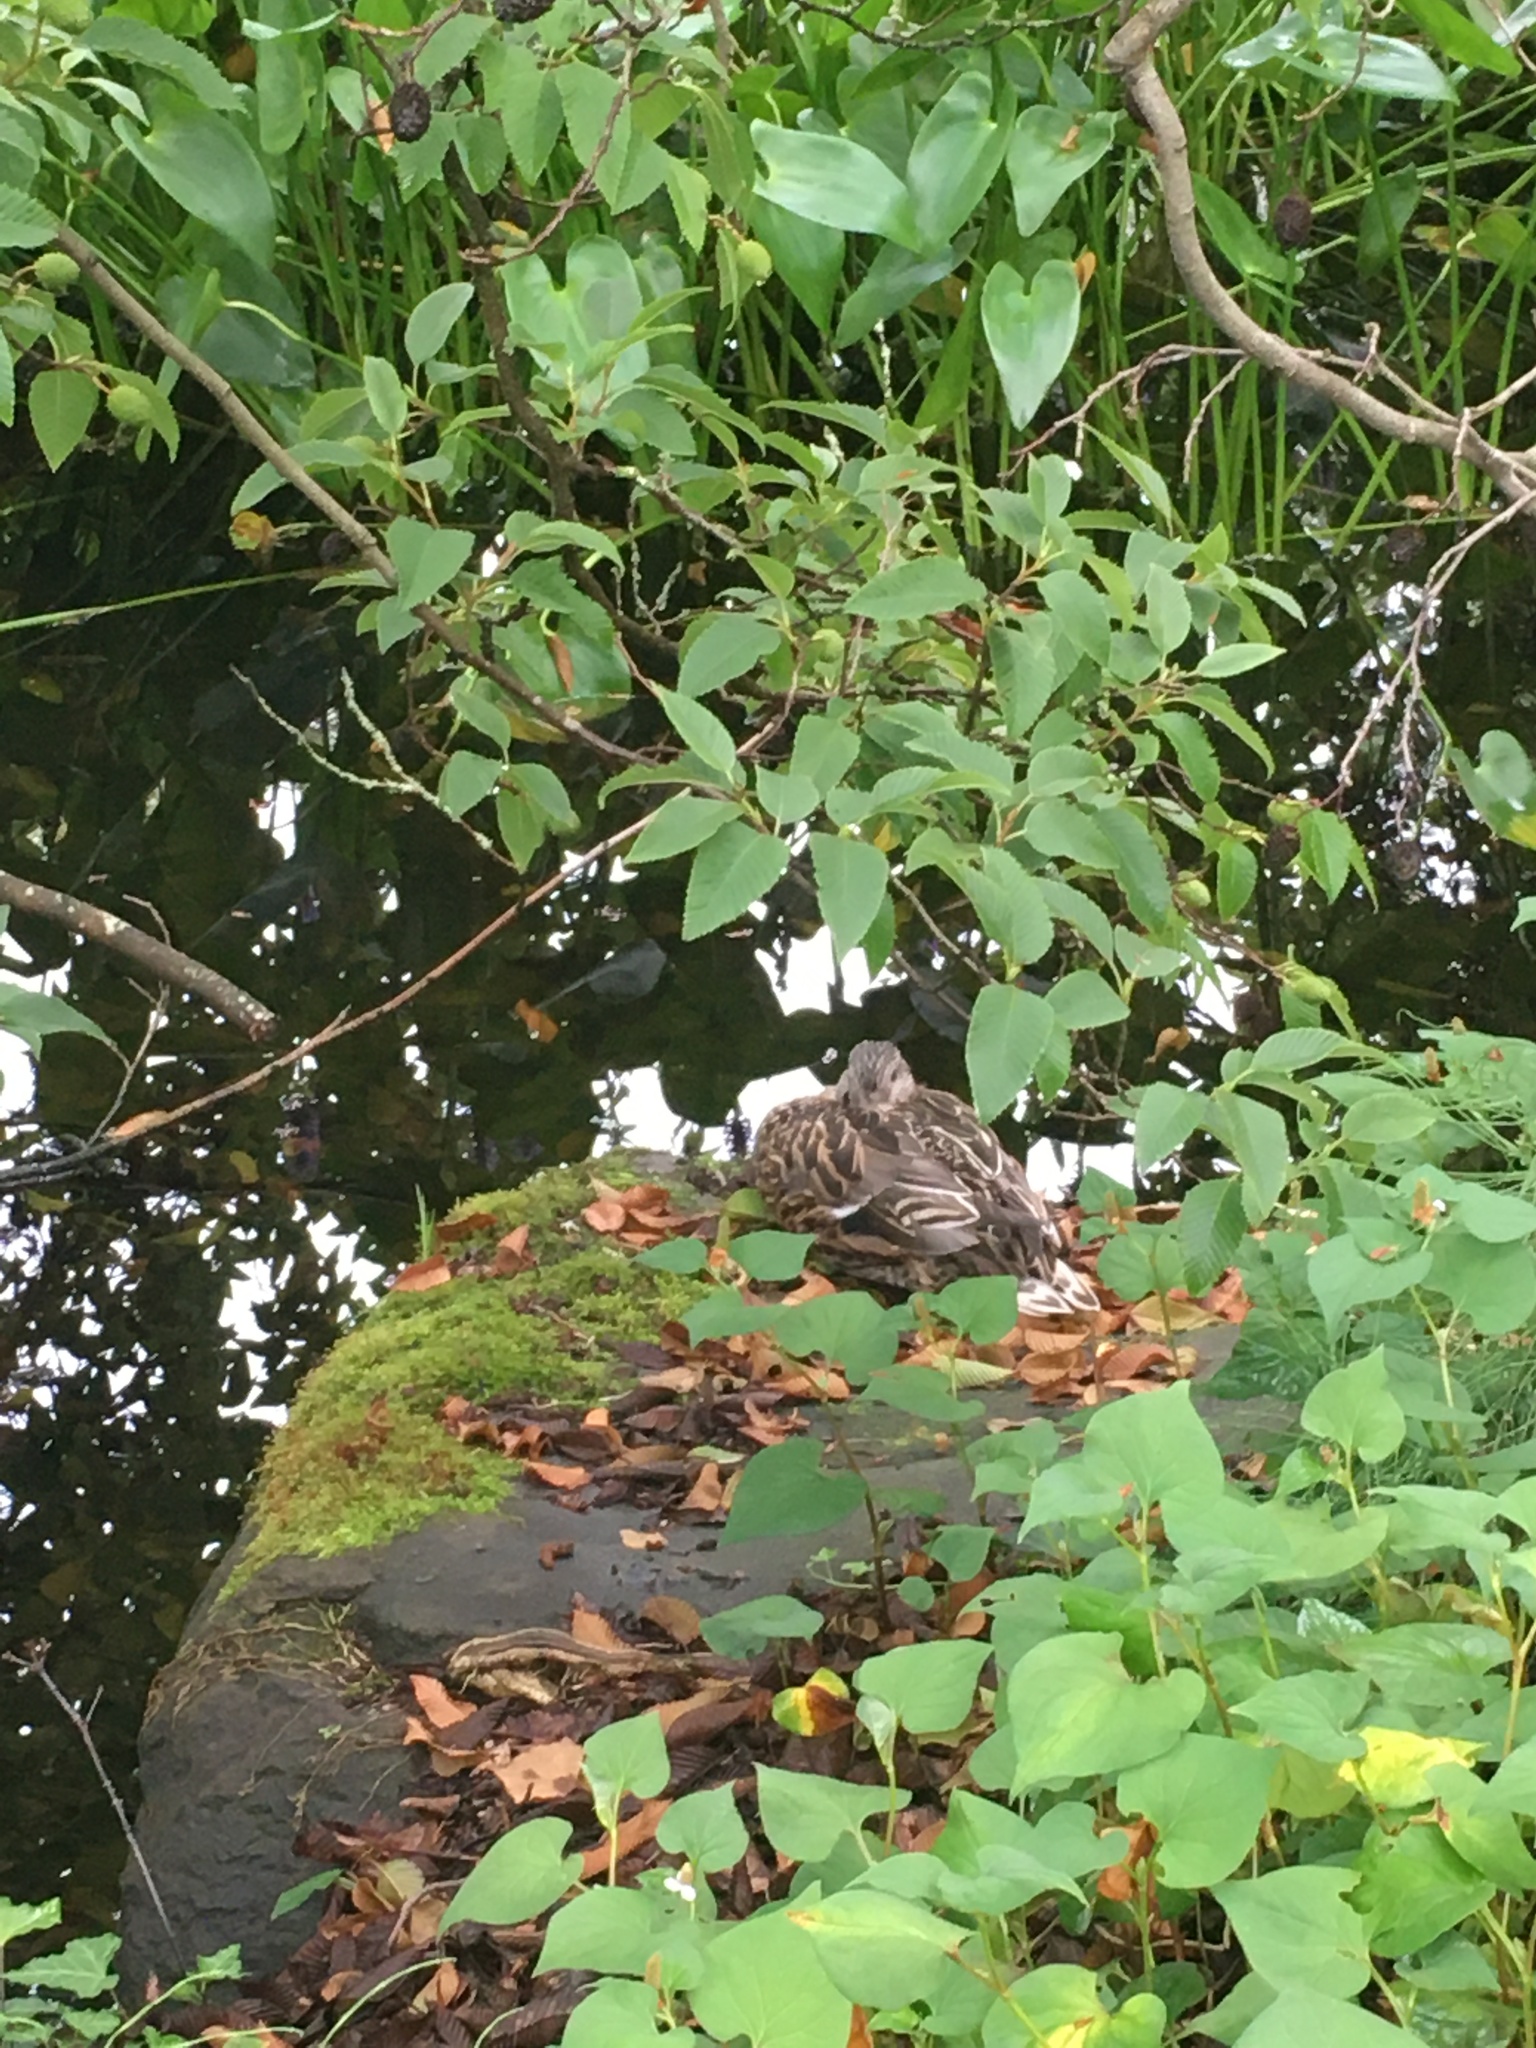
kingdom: Animalia
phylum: Chordata
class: Aves
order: Anseriformes
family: Anatidae
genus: Anas
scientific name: Anas platyrhynchos
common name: Mallard
